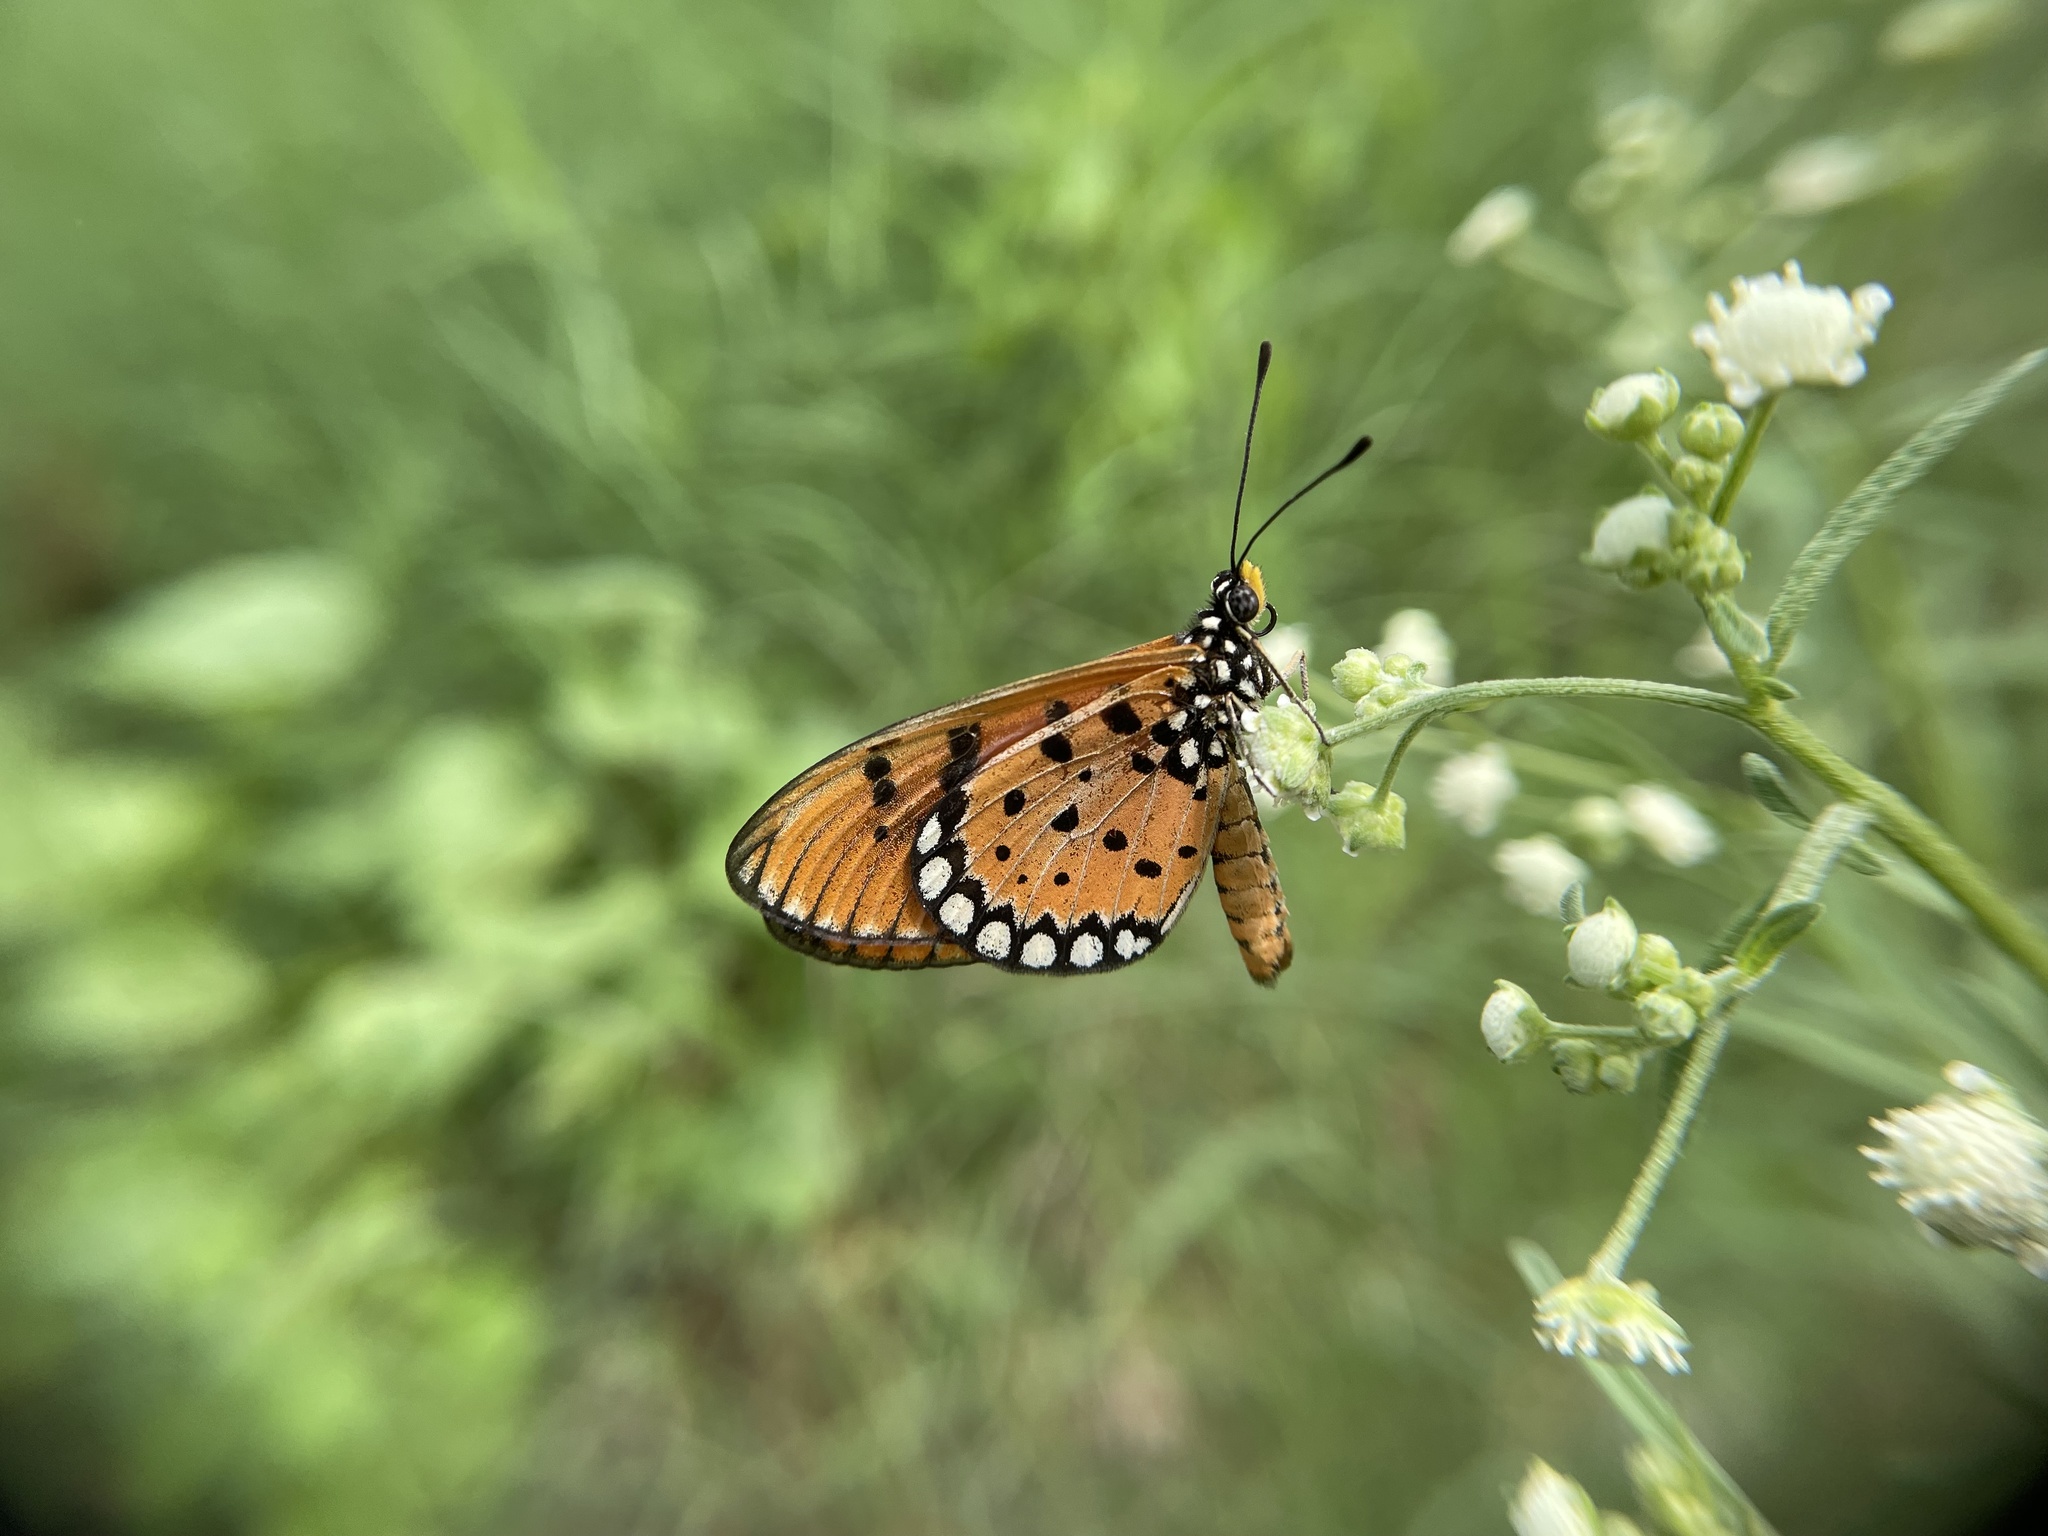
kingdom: Animalia
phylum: Arthropoda
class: Insecta
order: Lepidoptera
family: Nymphalidae
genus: Acraea
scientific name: Acraea terpsicore
